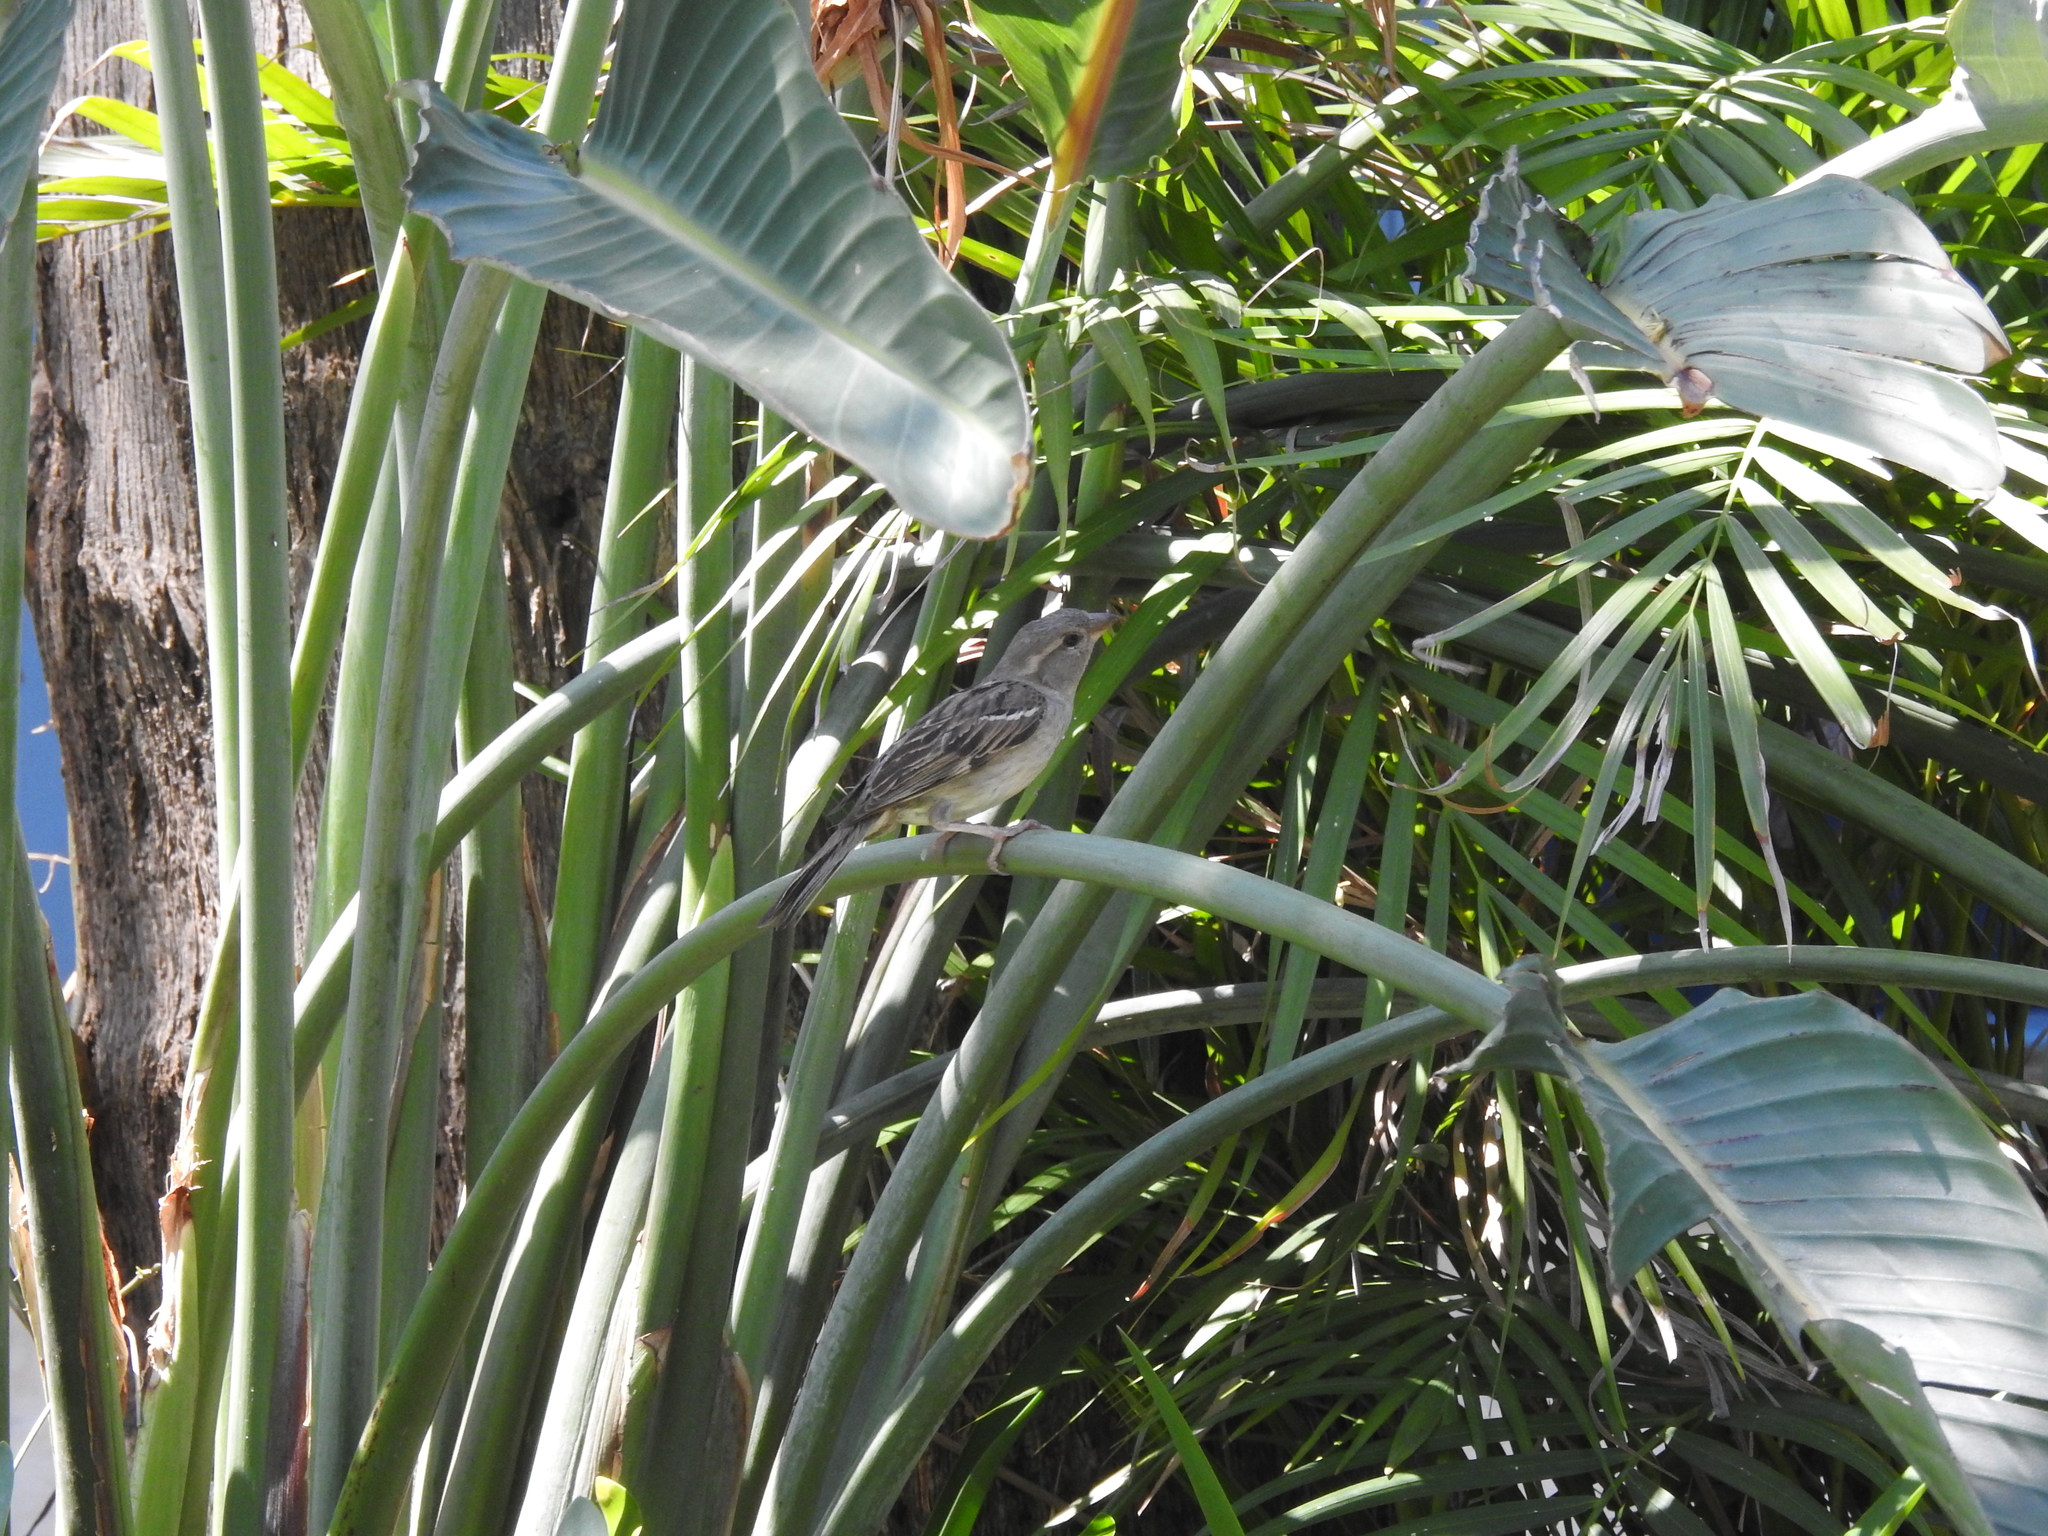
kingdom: Animalia
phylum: Chordata
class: Aves
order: Passeriformes
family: Passeridae
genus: Passer
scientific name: Passer domesticus
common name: House sparrow
